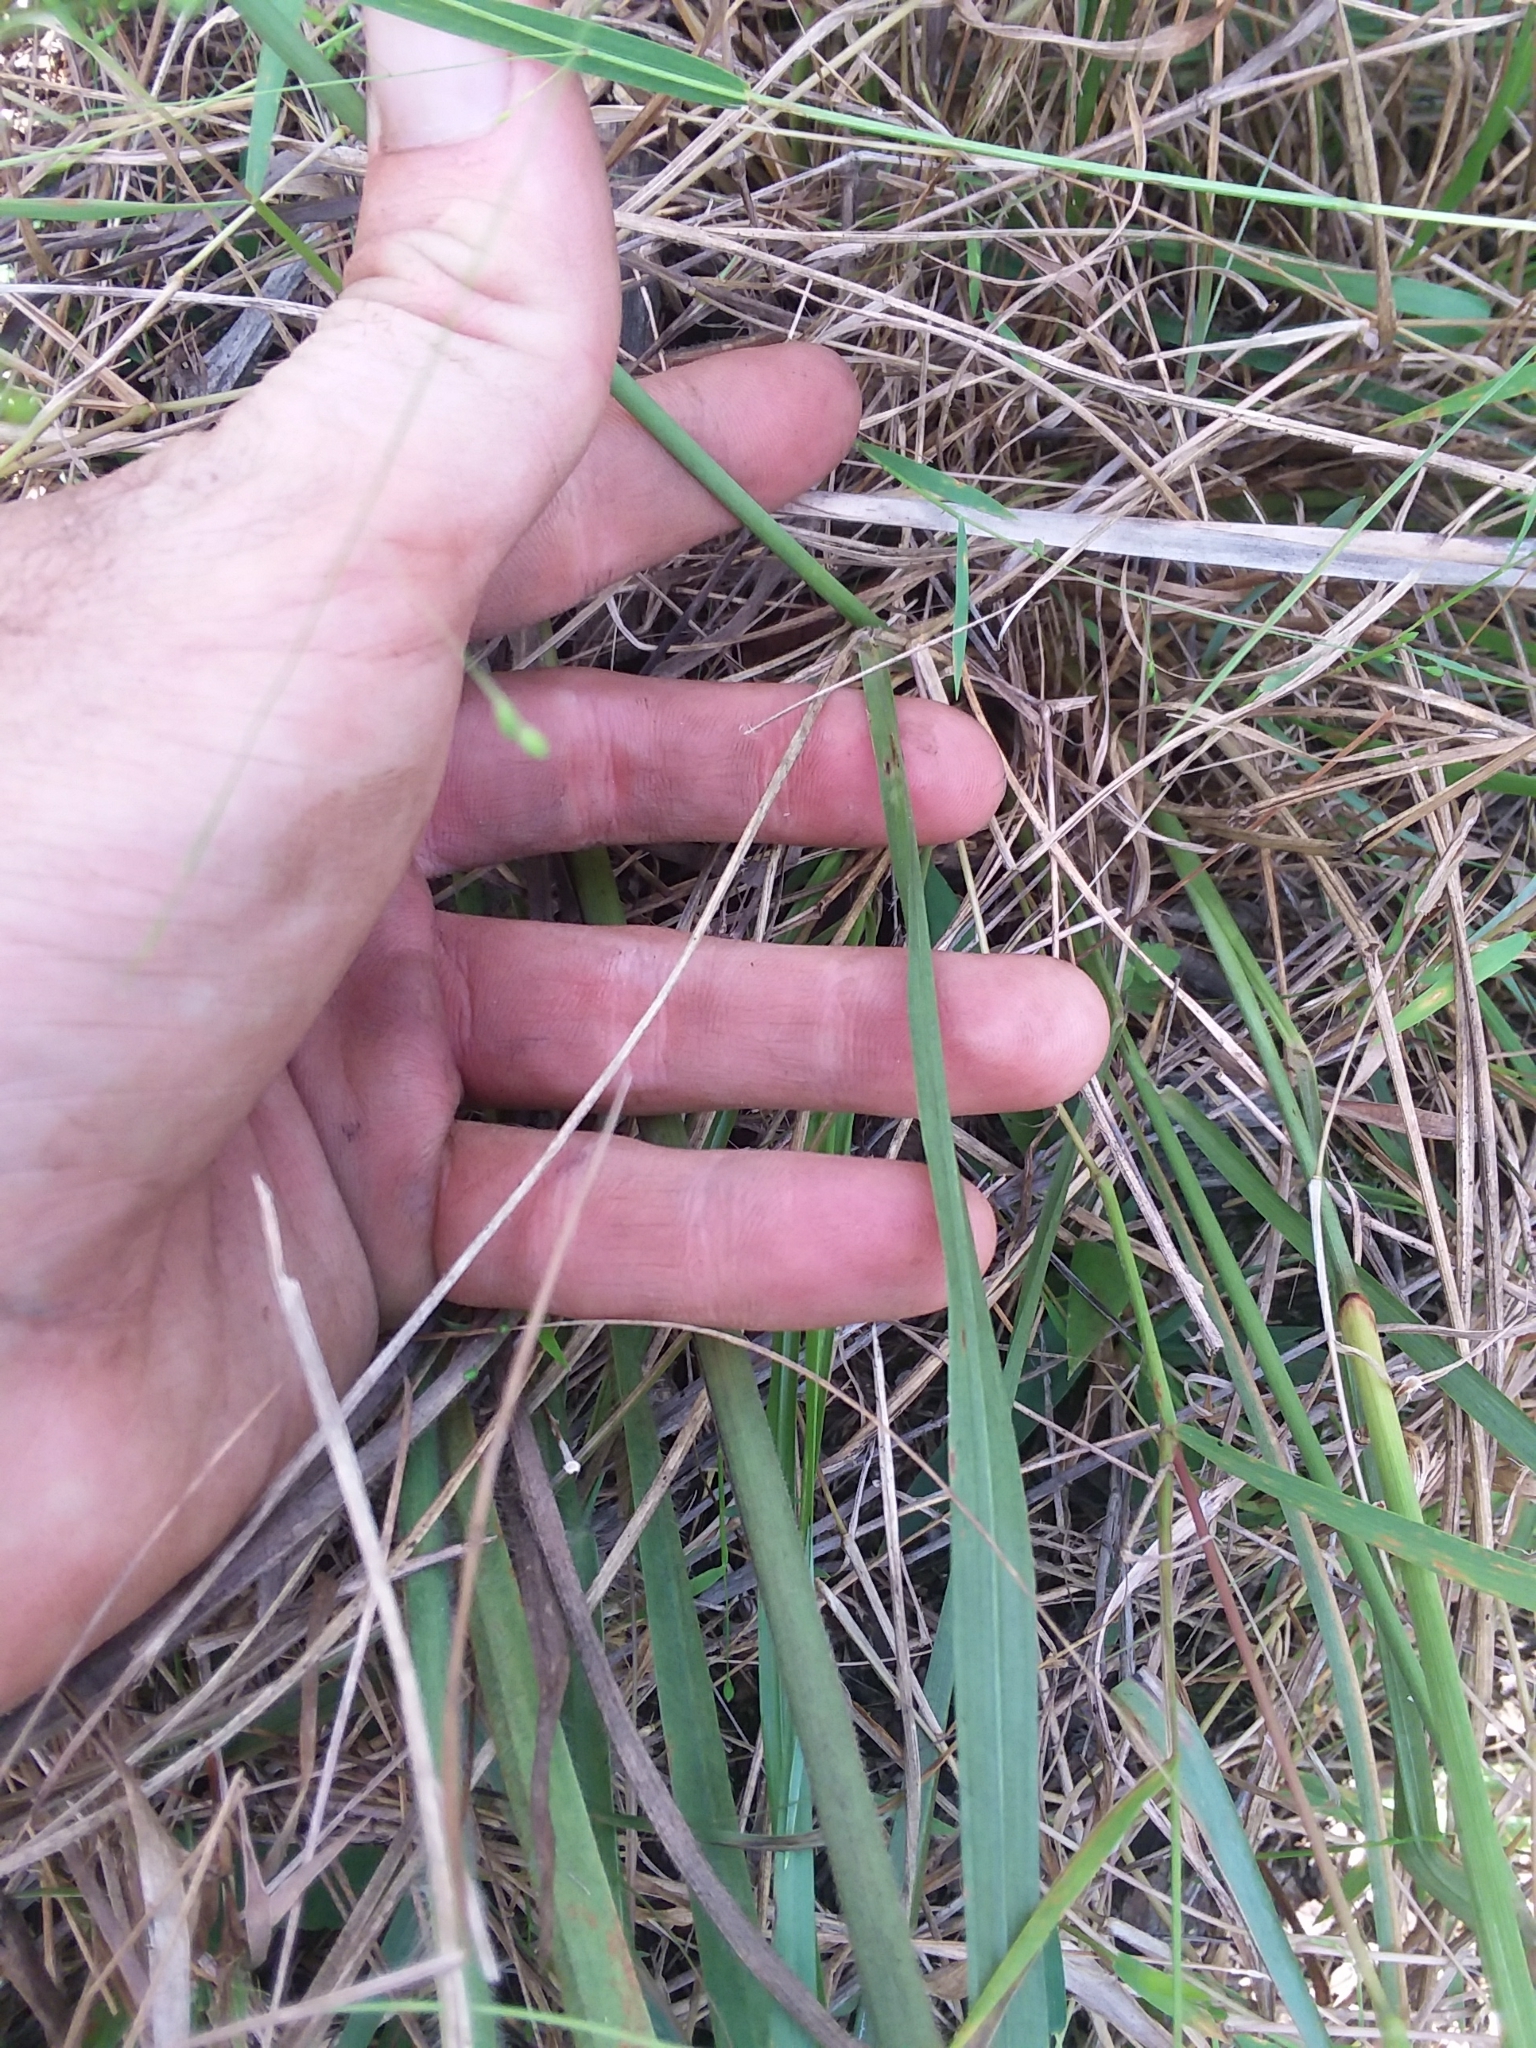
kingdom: Plantae
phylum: Tracheophyta
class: Liliopsida
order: Poales
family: Poaceae
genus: Tridens
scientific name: Tridens ambiguus
